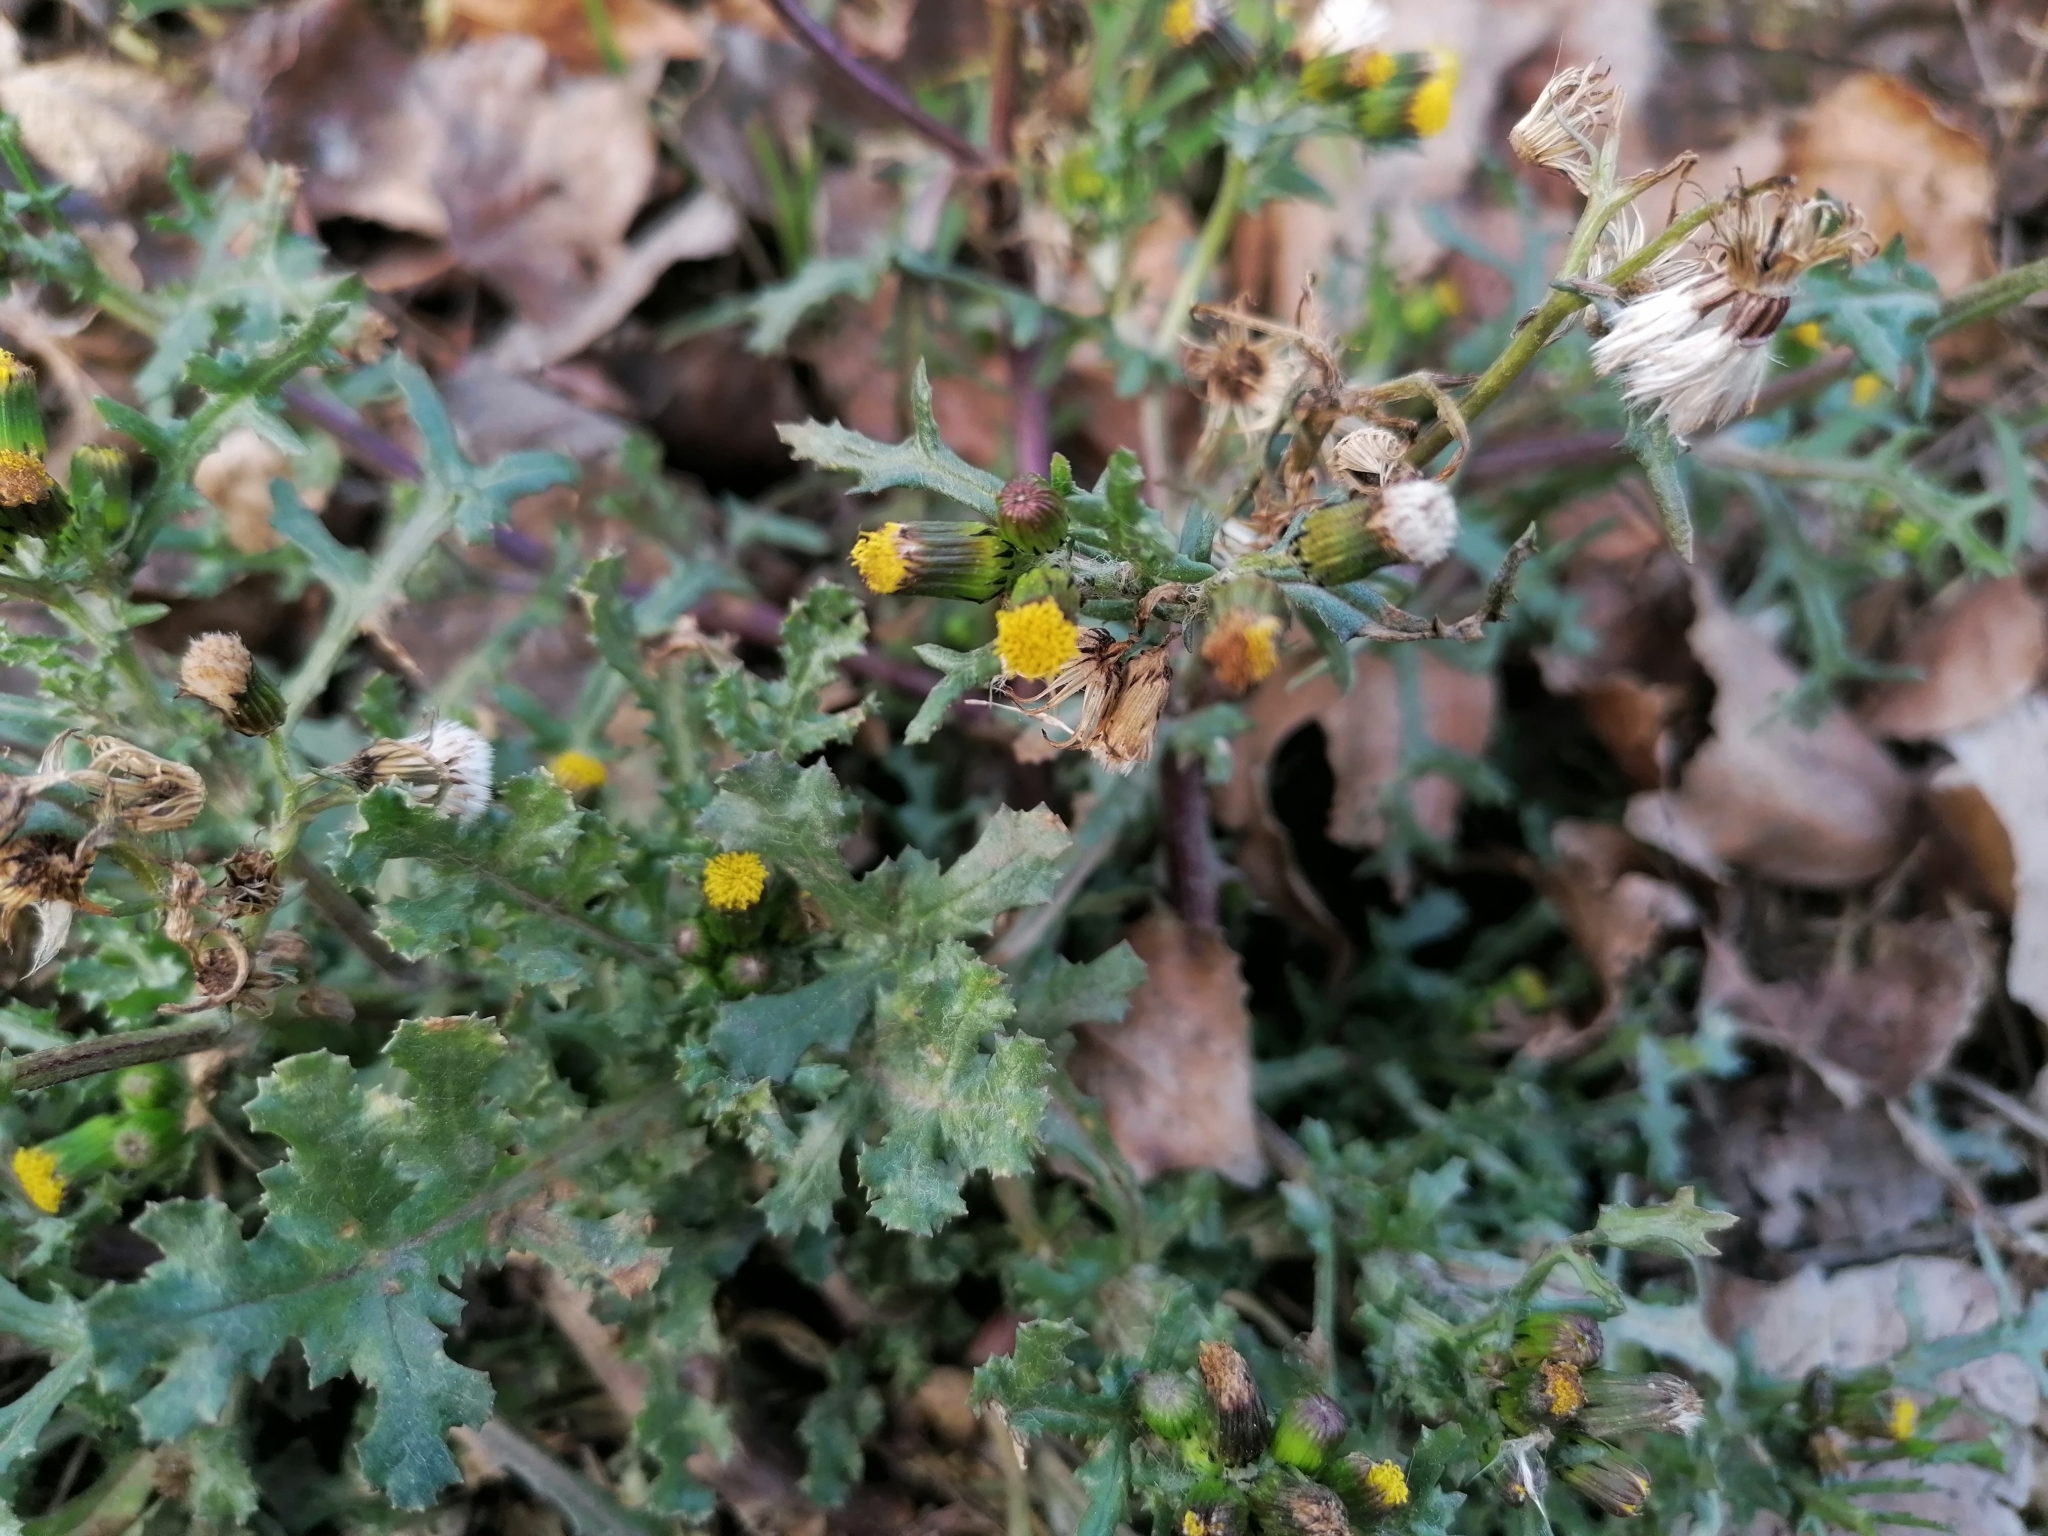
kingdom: Plantae
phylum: Tracheophyta
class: Magnoliopsida
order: Asterales
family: Asteraceae
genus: Senecio
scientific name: Senecio vulgaris
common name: Old-man-in-the-spring
